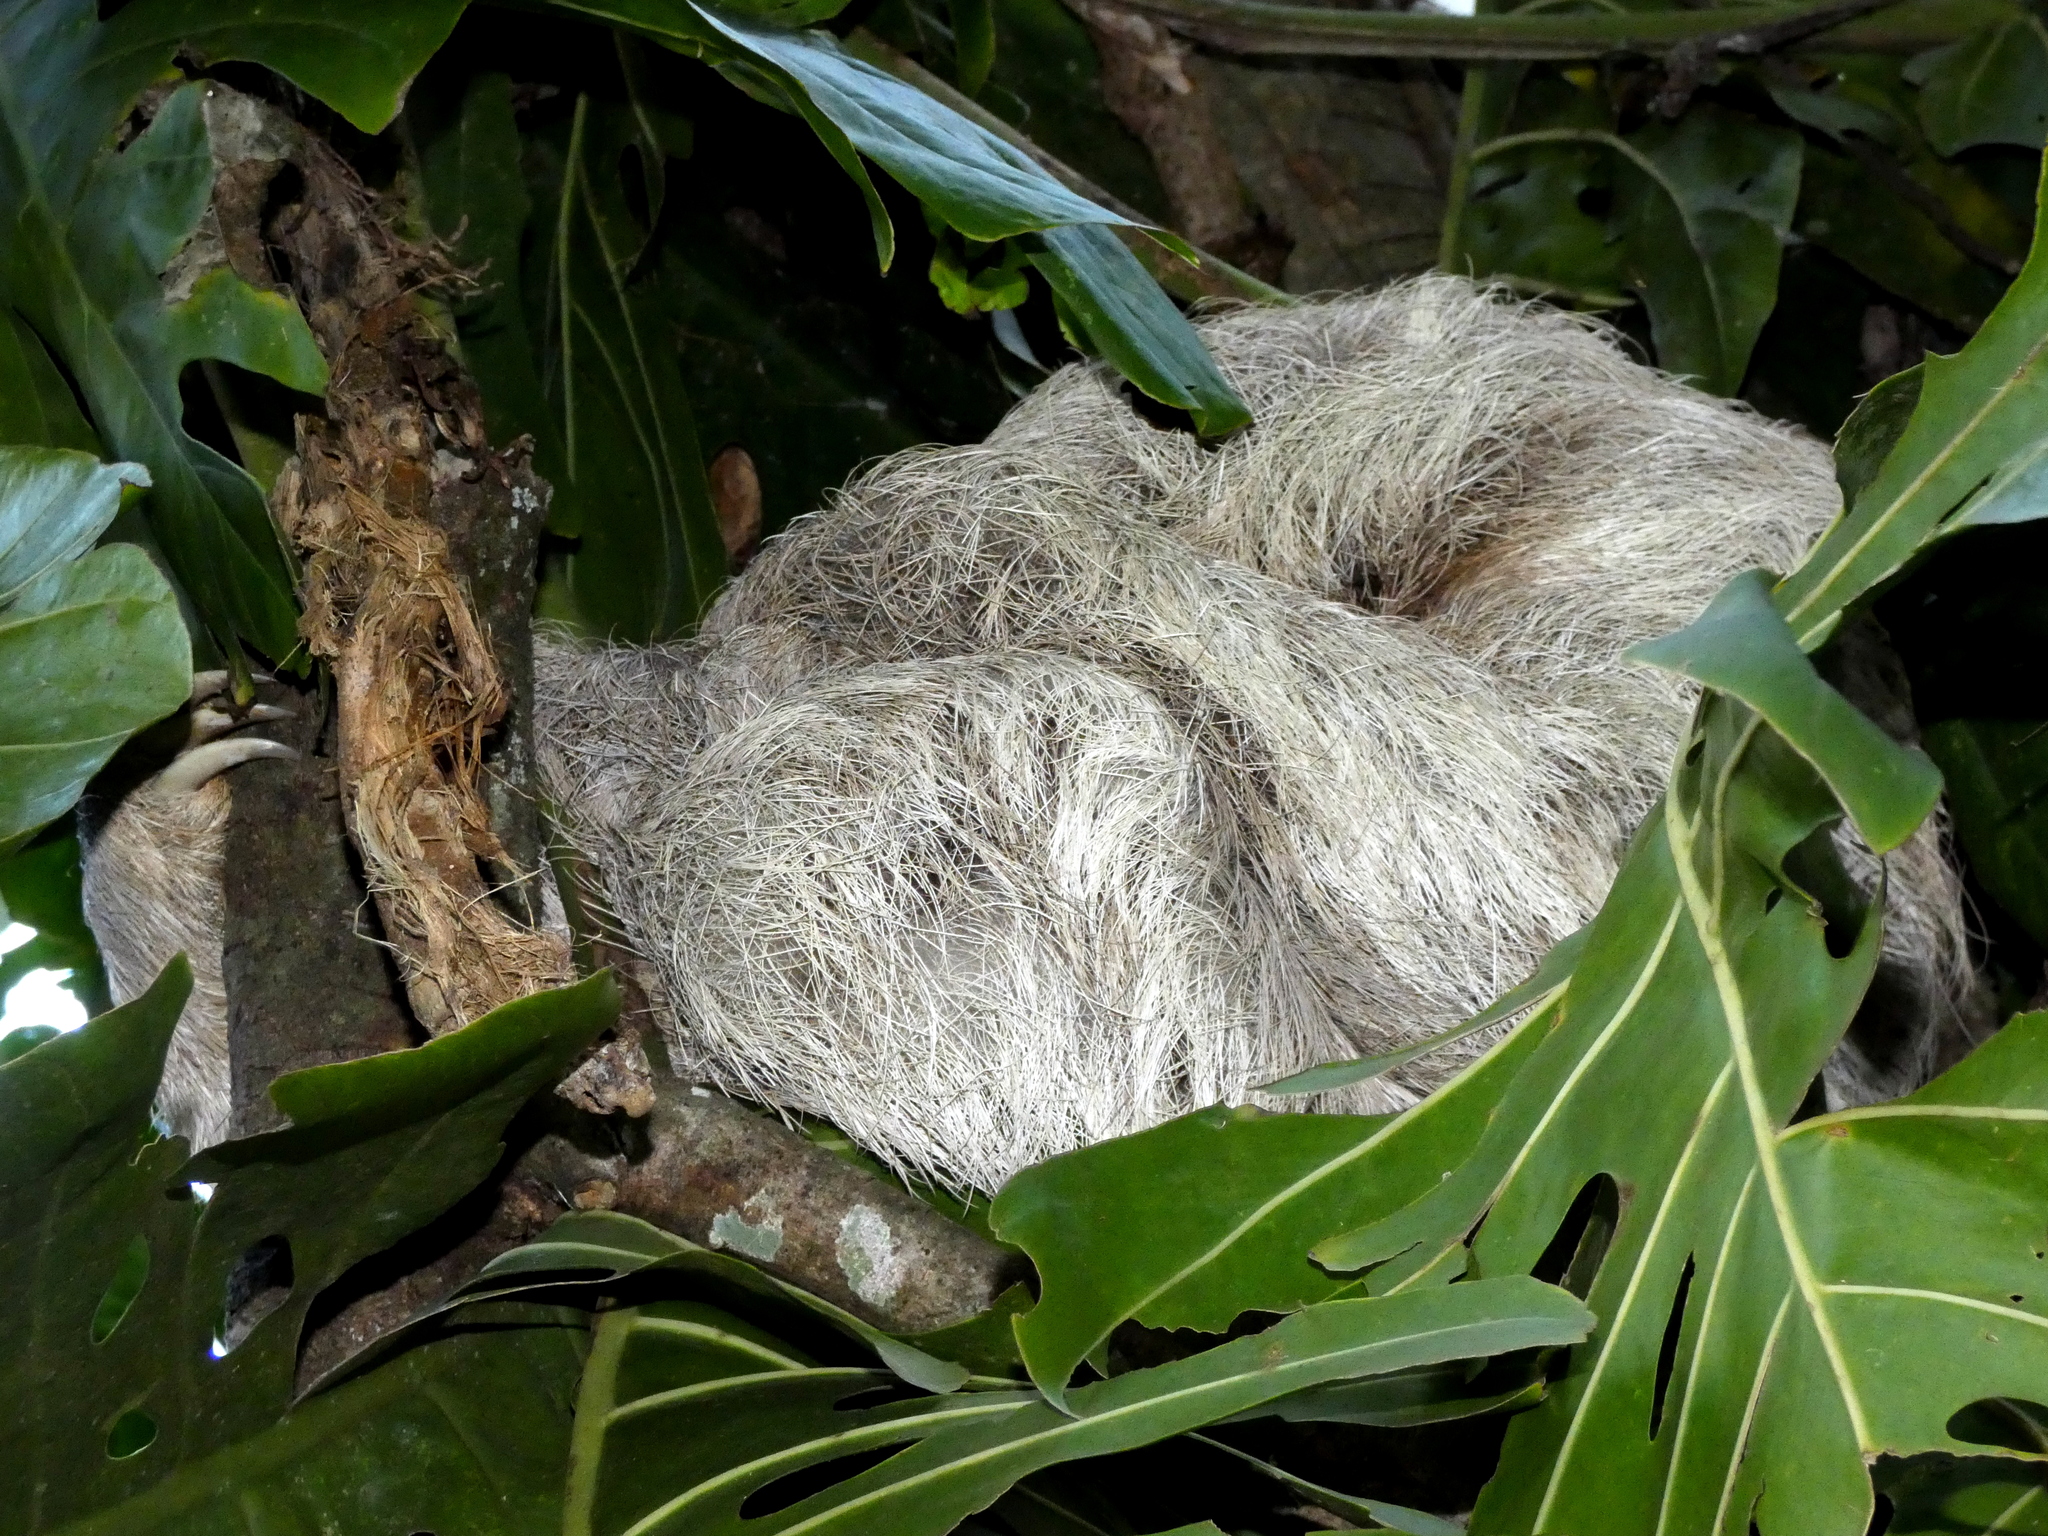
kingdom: Animalia
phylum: Chordata
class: Mammalia
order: Pilosa
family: Bradypodidae
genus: Bradypus
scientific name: Bradypus variegatus
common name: Brown-throated three-toed sloth
